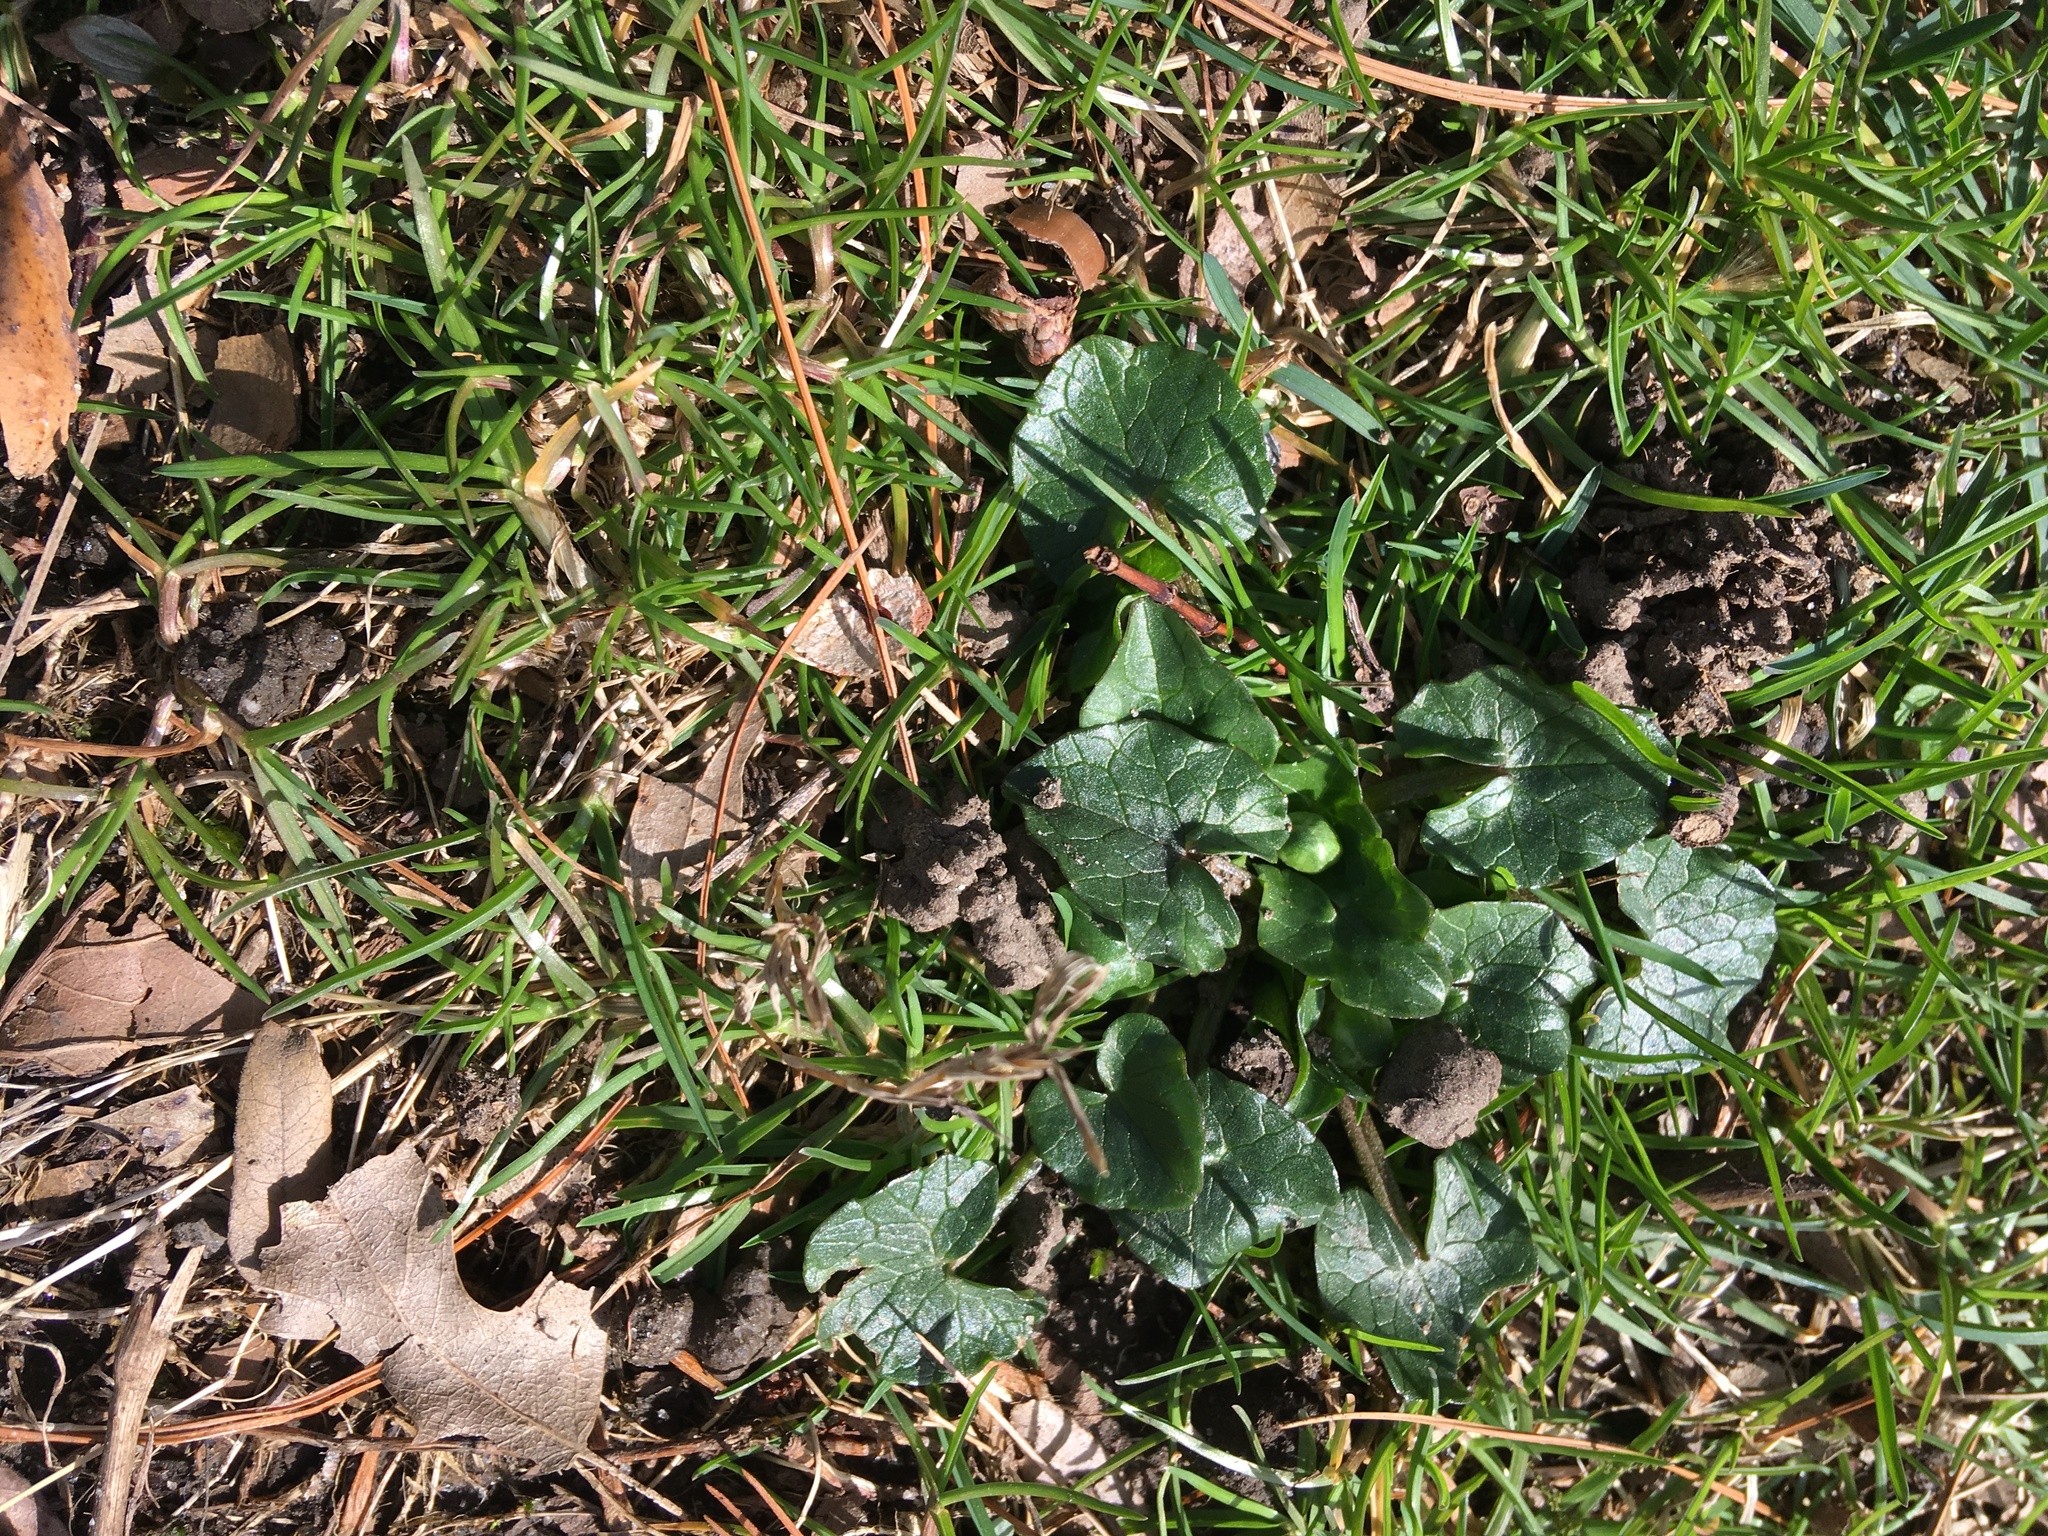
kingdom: Plantae
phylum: Tracheophyta
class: Magnoliopsida
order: Ranunculales
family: Ranunculaceae
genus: Ficaria
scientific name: Ficaria verna
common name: Lesser celandine
